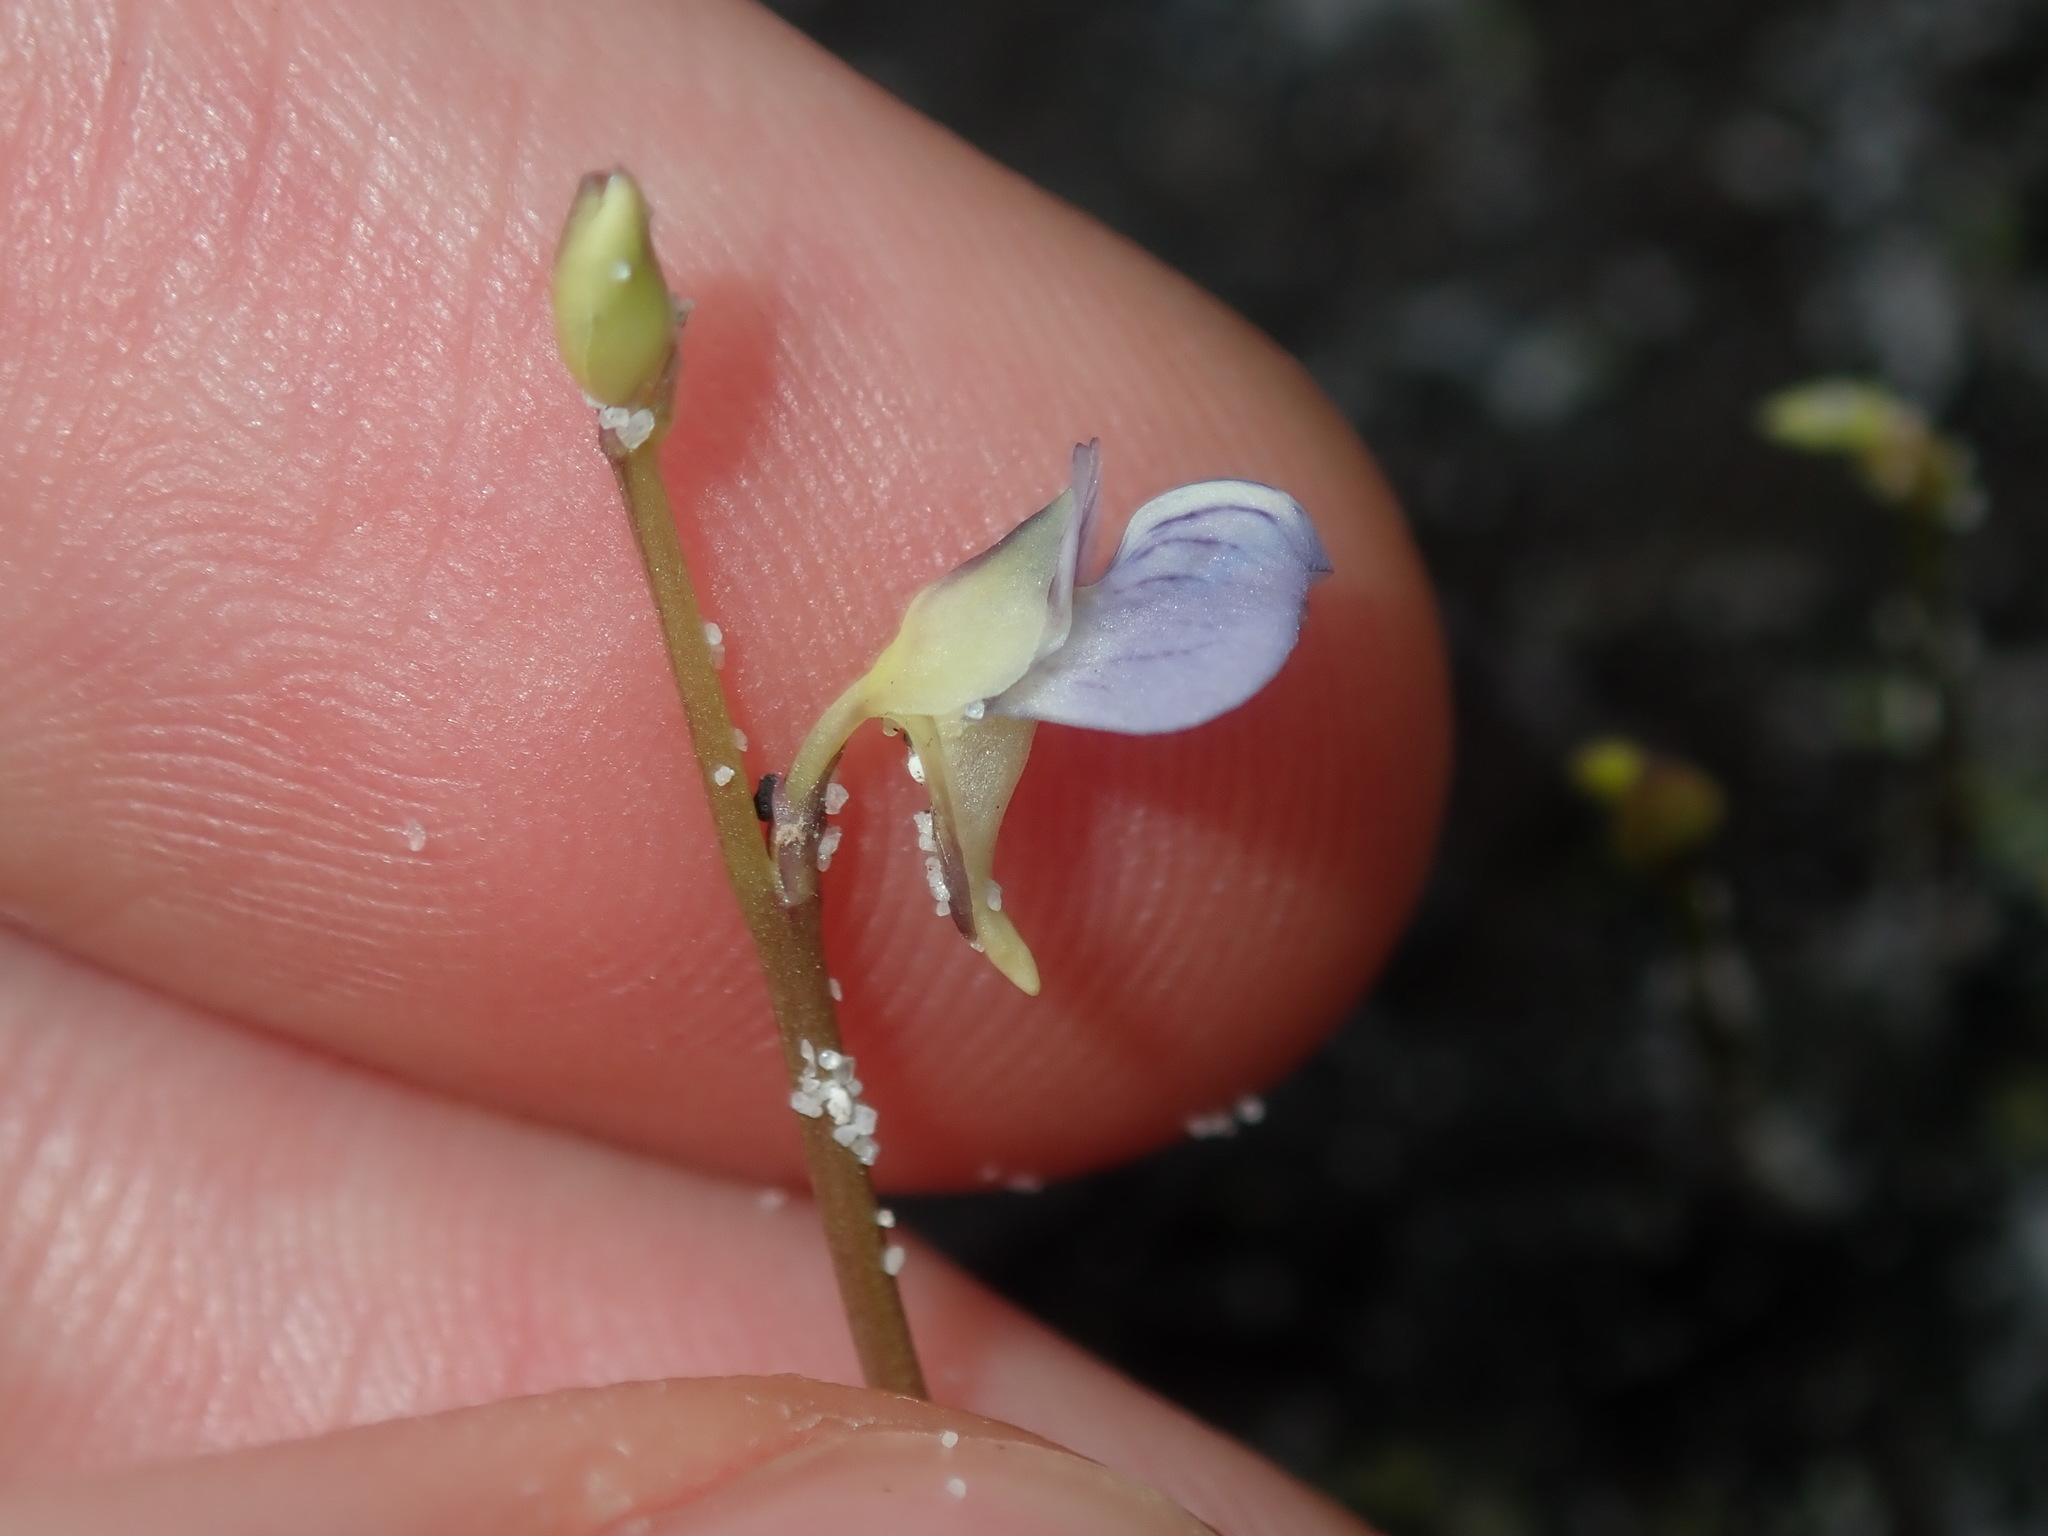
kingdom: Plantae
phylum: Tracheophyta
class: Magnoliopsida
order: Lamiales
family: Lentibulariaceae
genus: Utricularia
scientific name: Utricularia uliginosa
